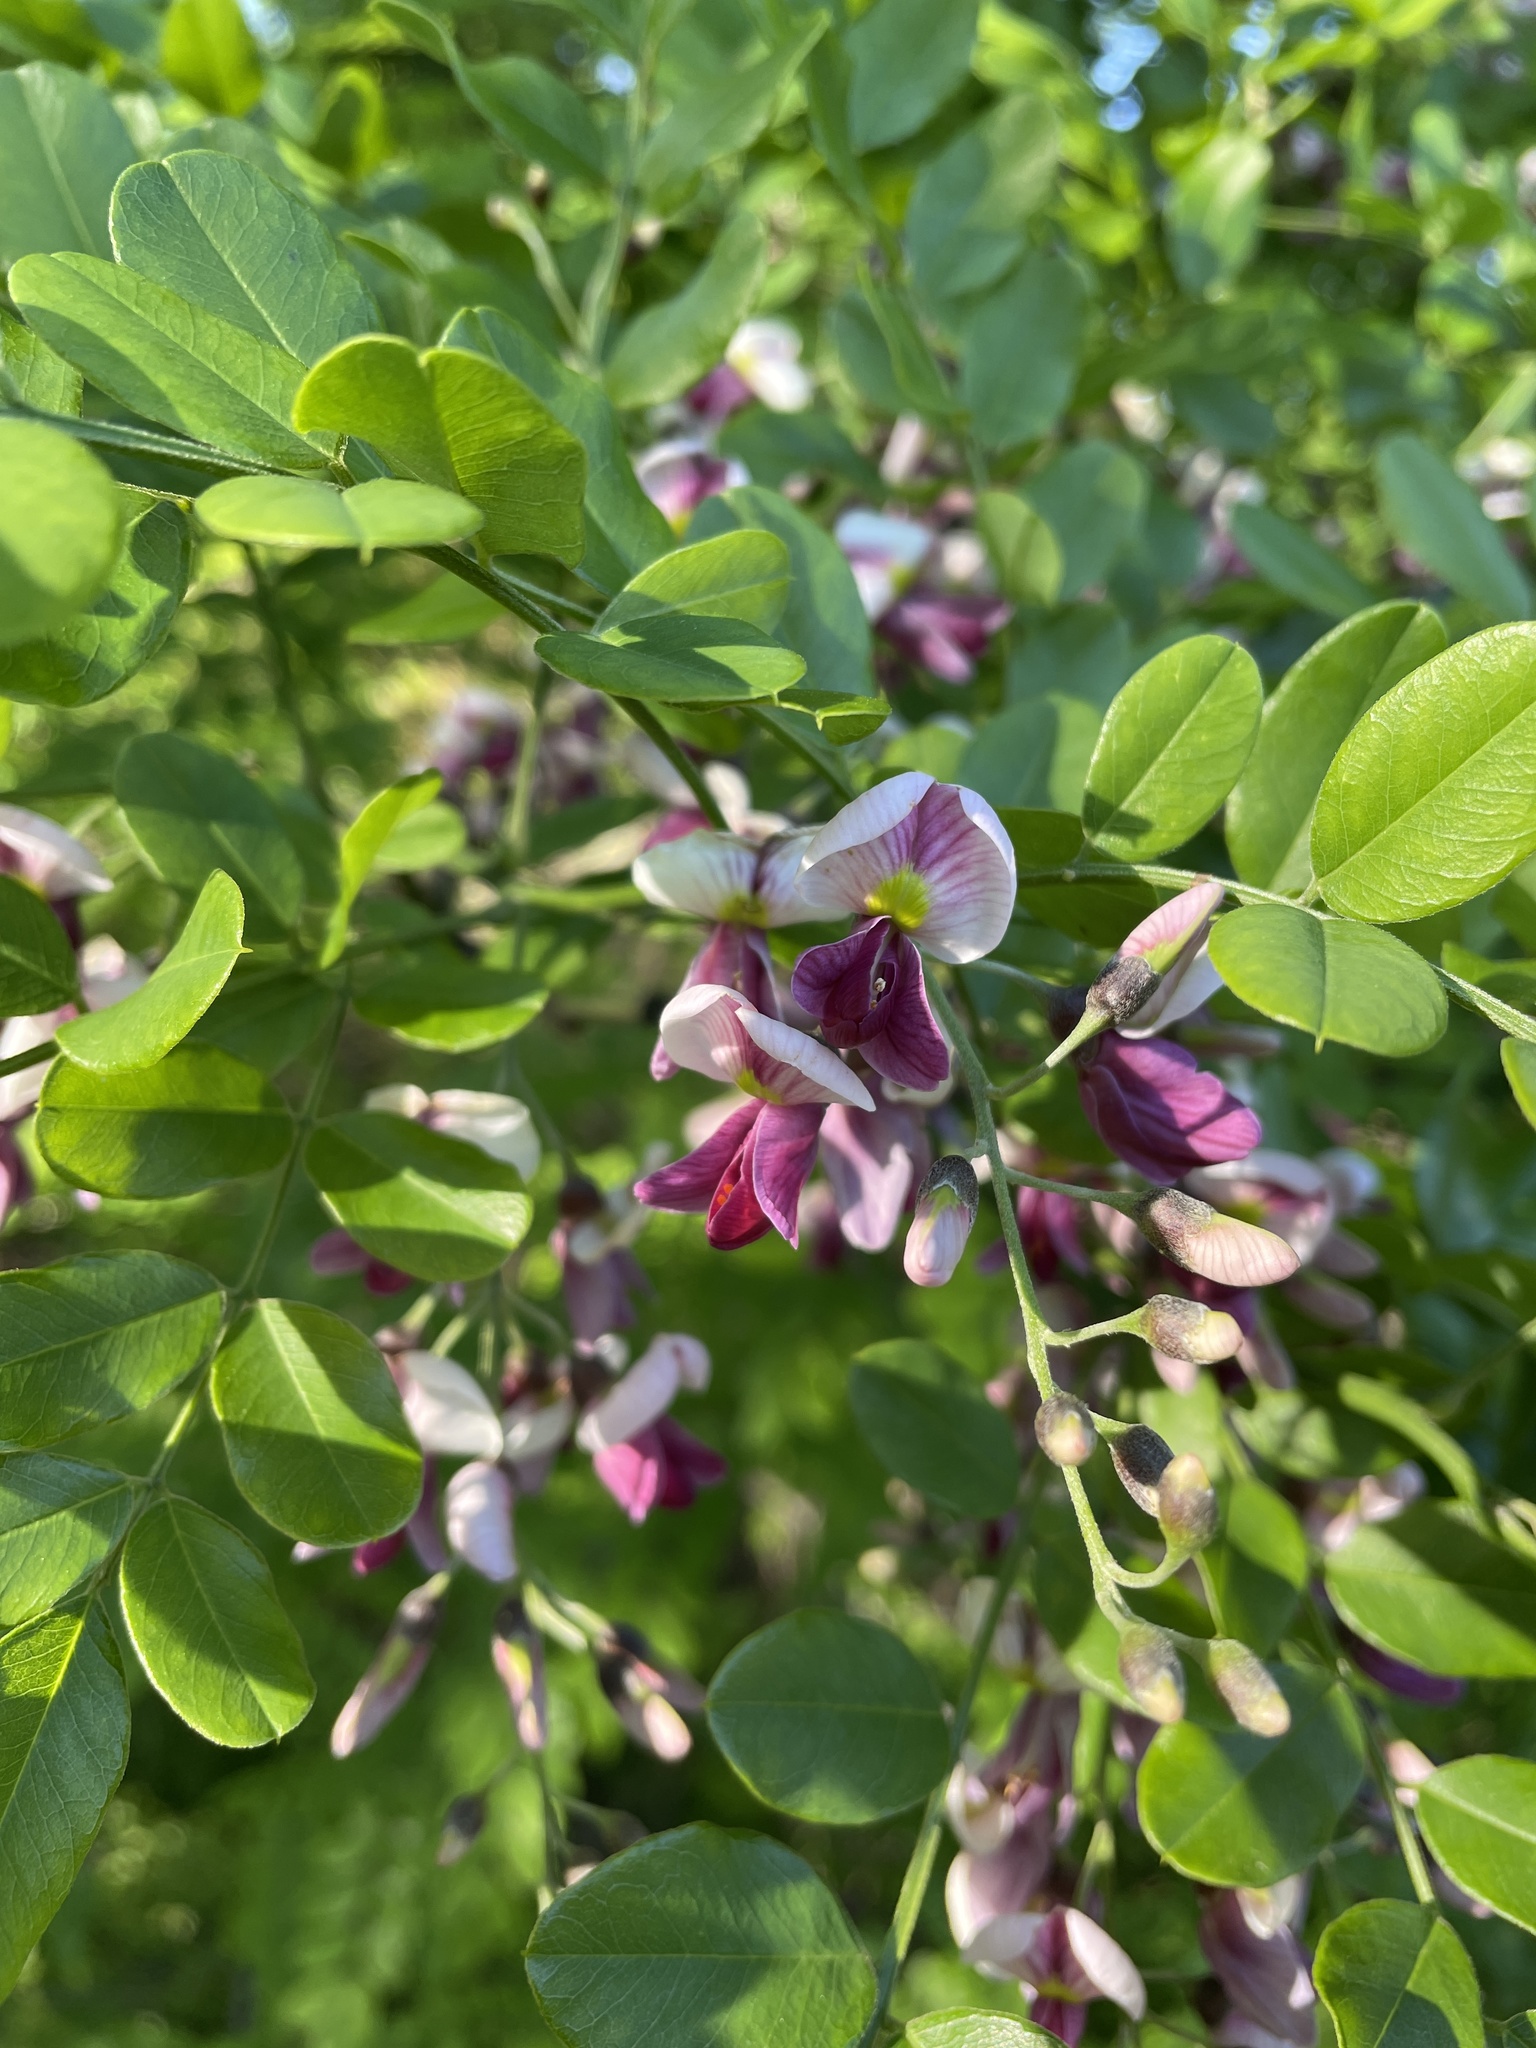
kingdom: Plantae
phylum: Tracheophyta
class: Magnoliopsida
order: Fabales
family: Fabaceae
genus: Styphnolobium
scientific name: Styphnolobium affine
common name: Texas sophora
